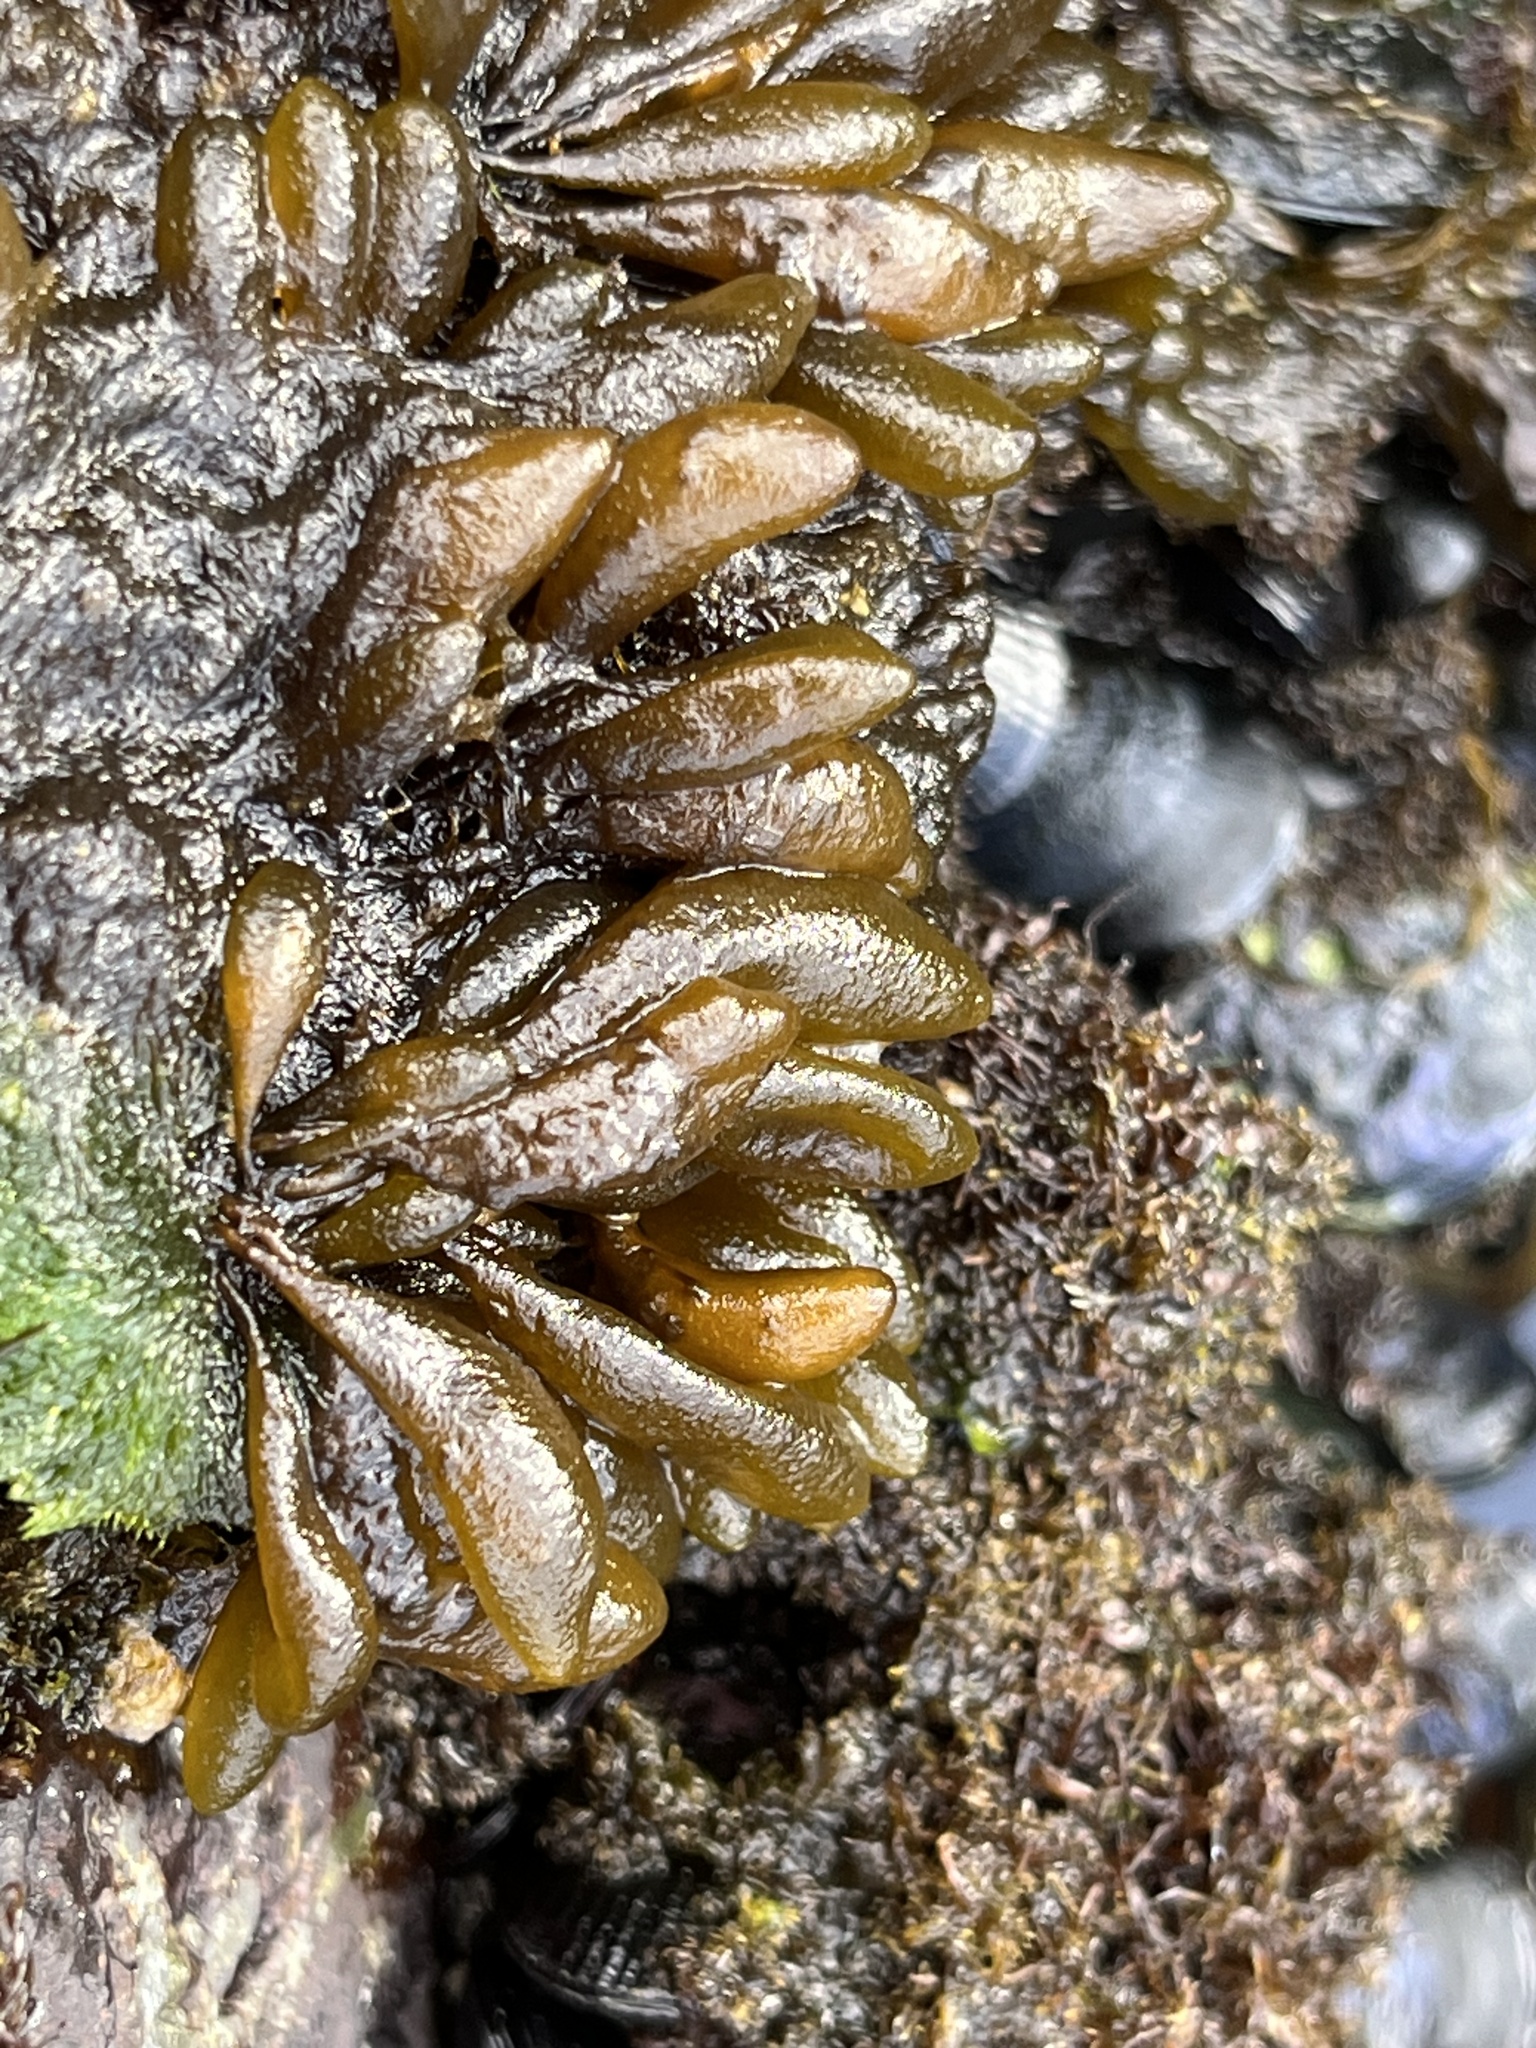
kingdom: Chromista
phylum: Ochrophyta
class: Phaeophyceae
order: Ectocarpales
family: Adenocystaceae
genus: Adenocystis
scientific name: Adenocystis utricularis
